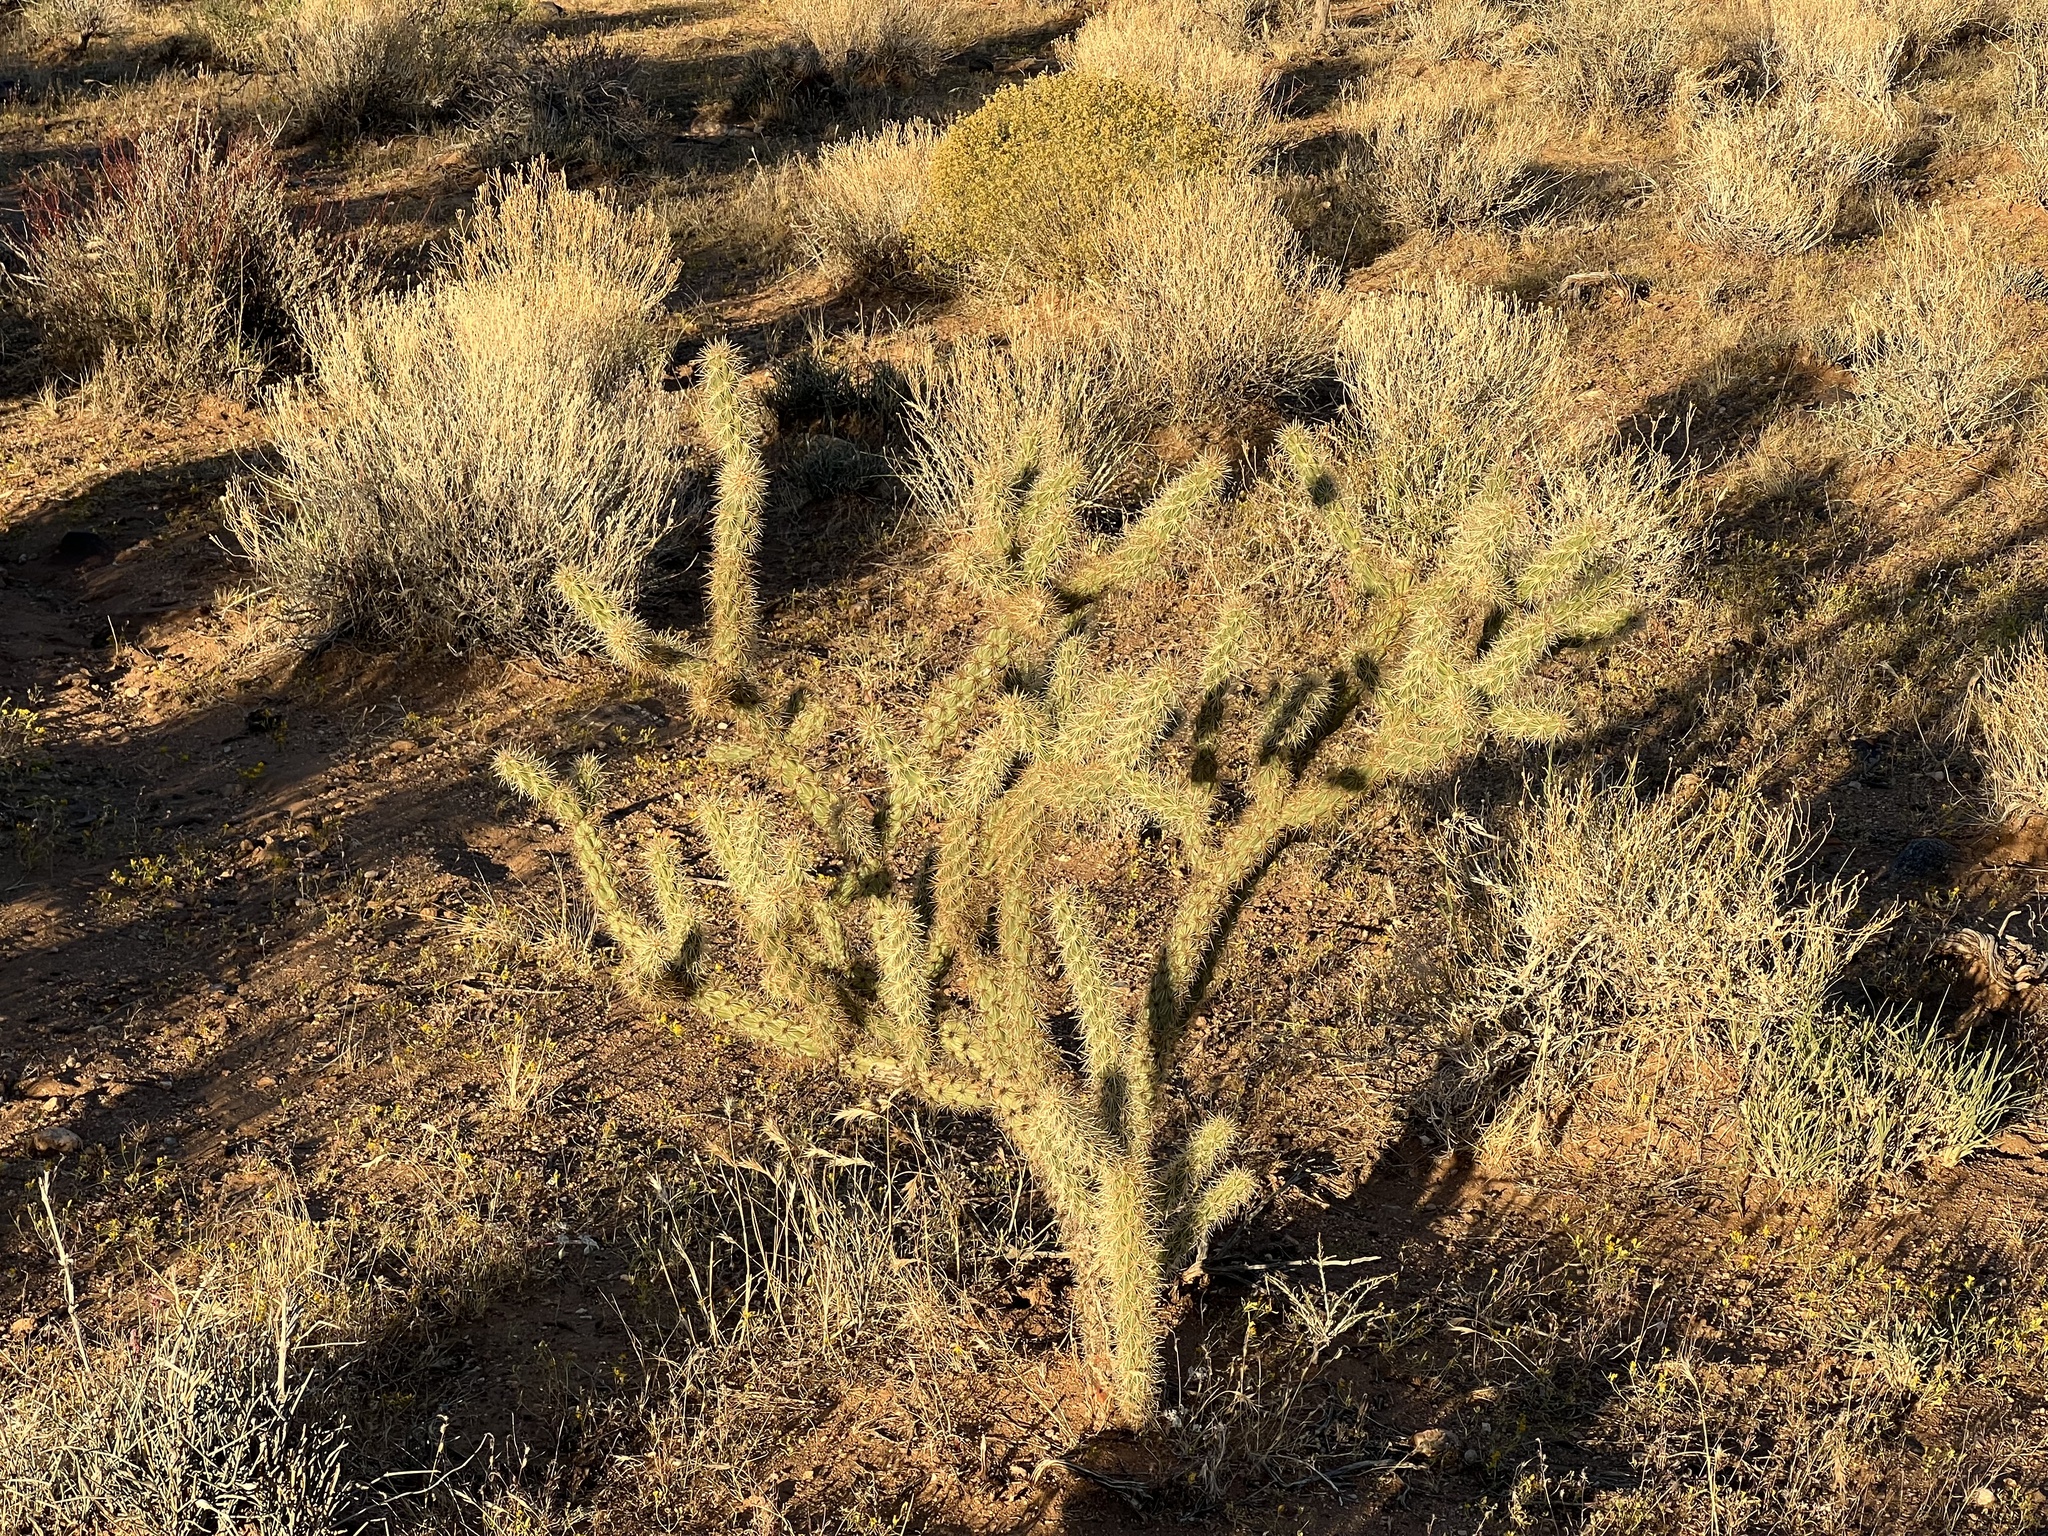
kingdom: Plantae
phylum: Tracheophyta
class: Magnoliopsida
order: Caryophyllales
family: Cactaceae
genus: Cylindropuntia
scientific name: Cylindropuntia acanthocarpa
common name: Buckhorn cholla
